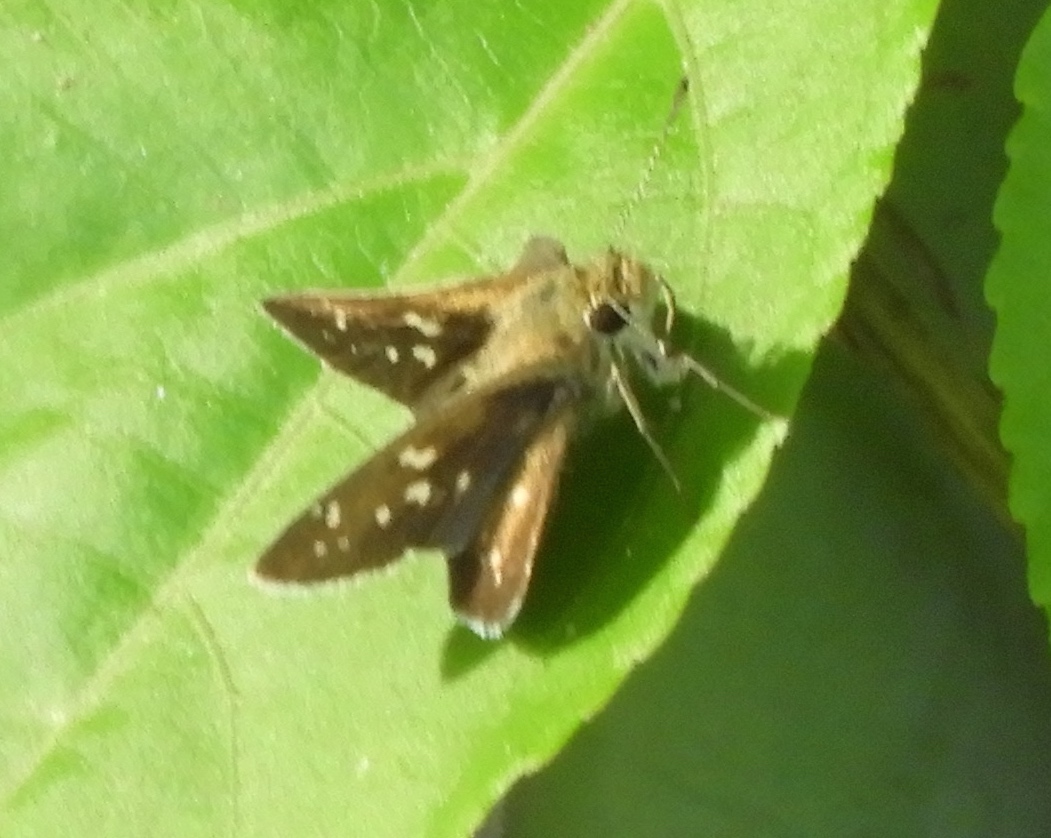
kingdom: Animalia
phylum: Arthropoda
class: Insecta
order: Lepidoptera
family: Hesperiidae
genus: Mastor
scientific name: Mastor tolteca
